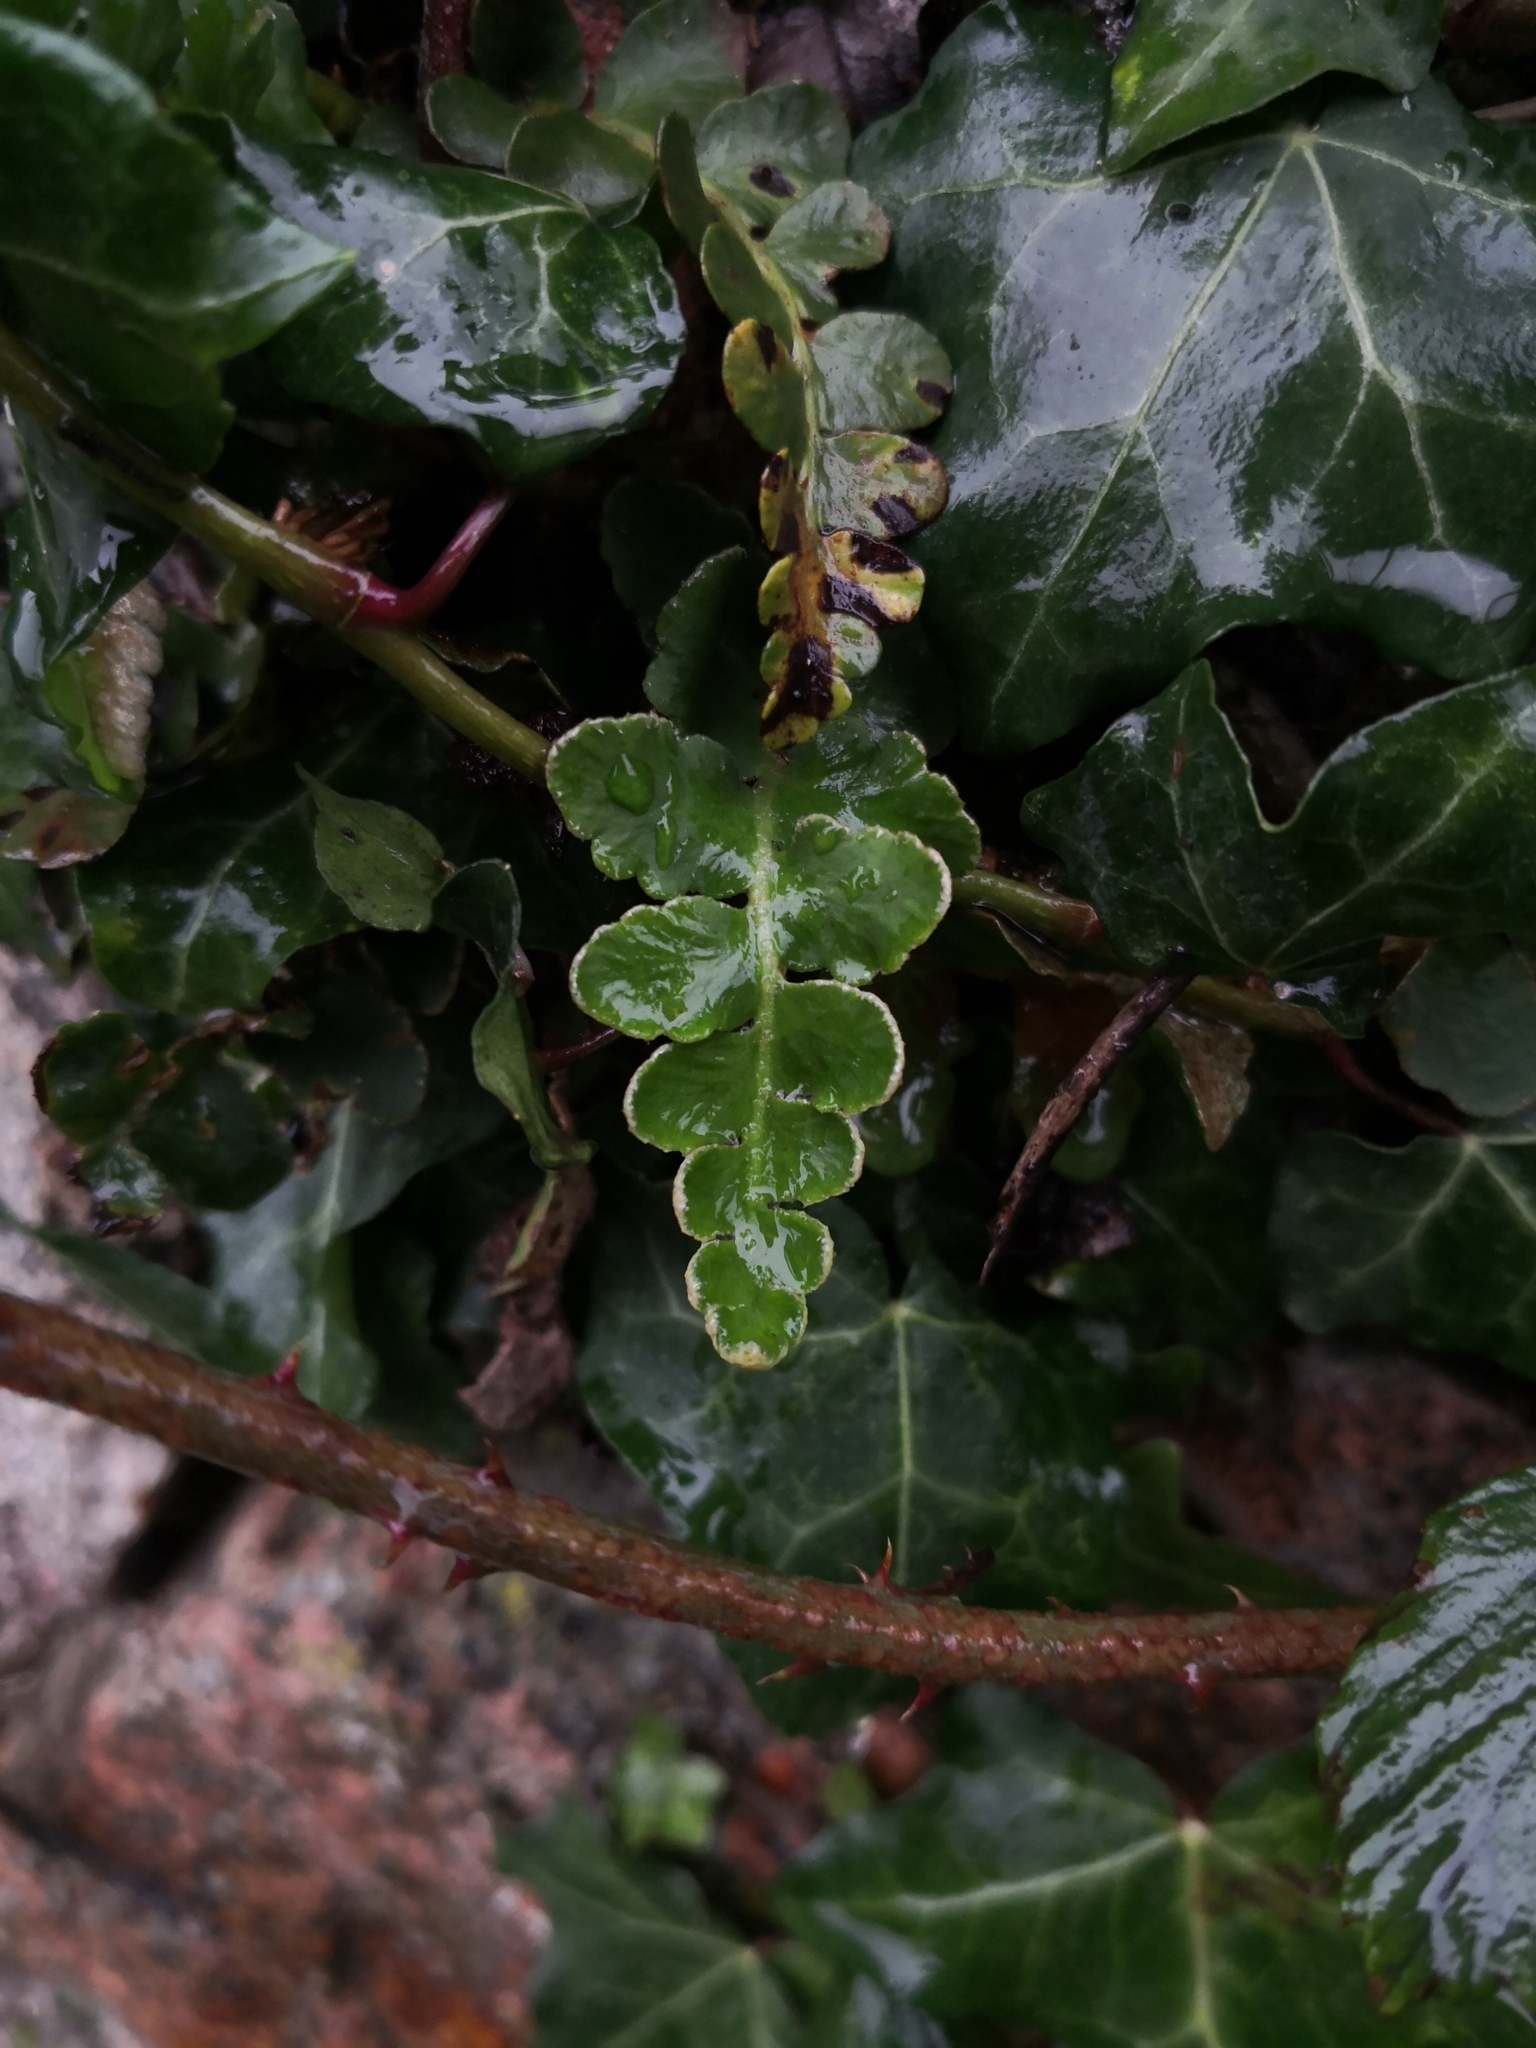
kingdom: Plantae
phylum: Tracheophyta
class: Polypodiopsida
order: Polypodiales
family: Aspleniaceae
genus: Asplenium
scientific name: Asplenium ceterach
